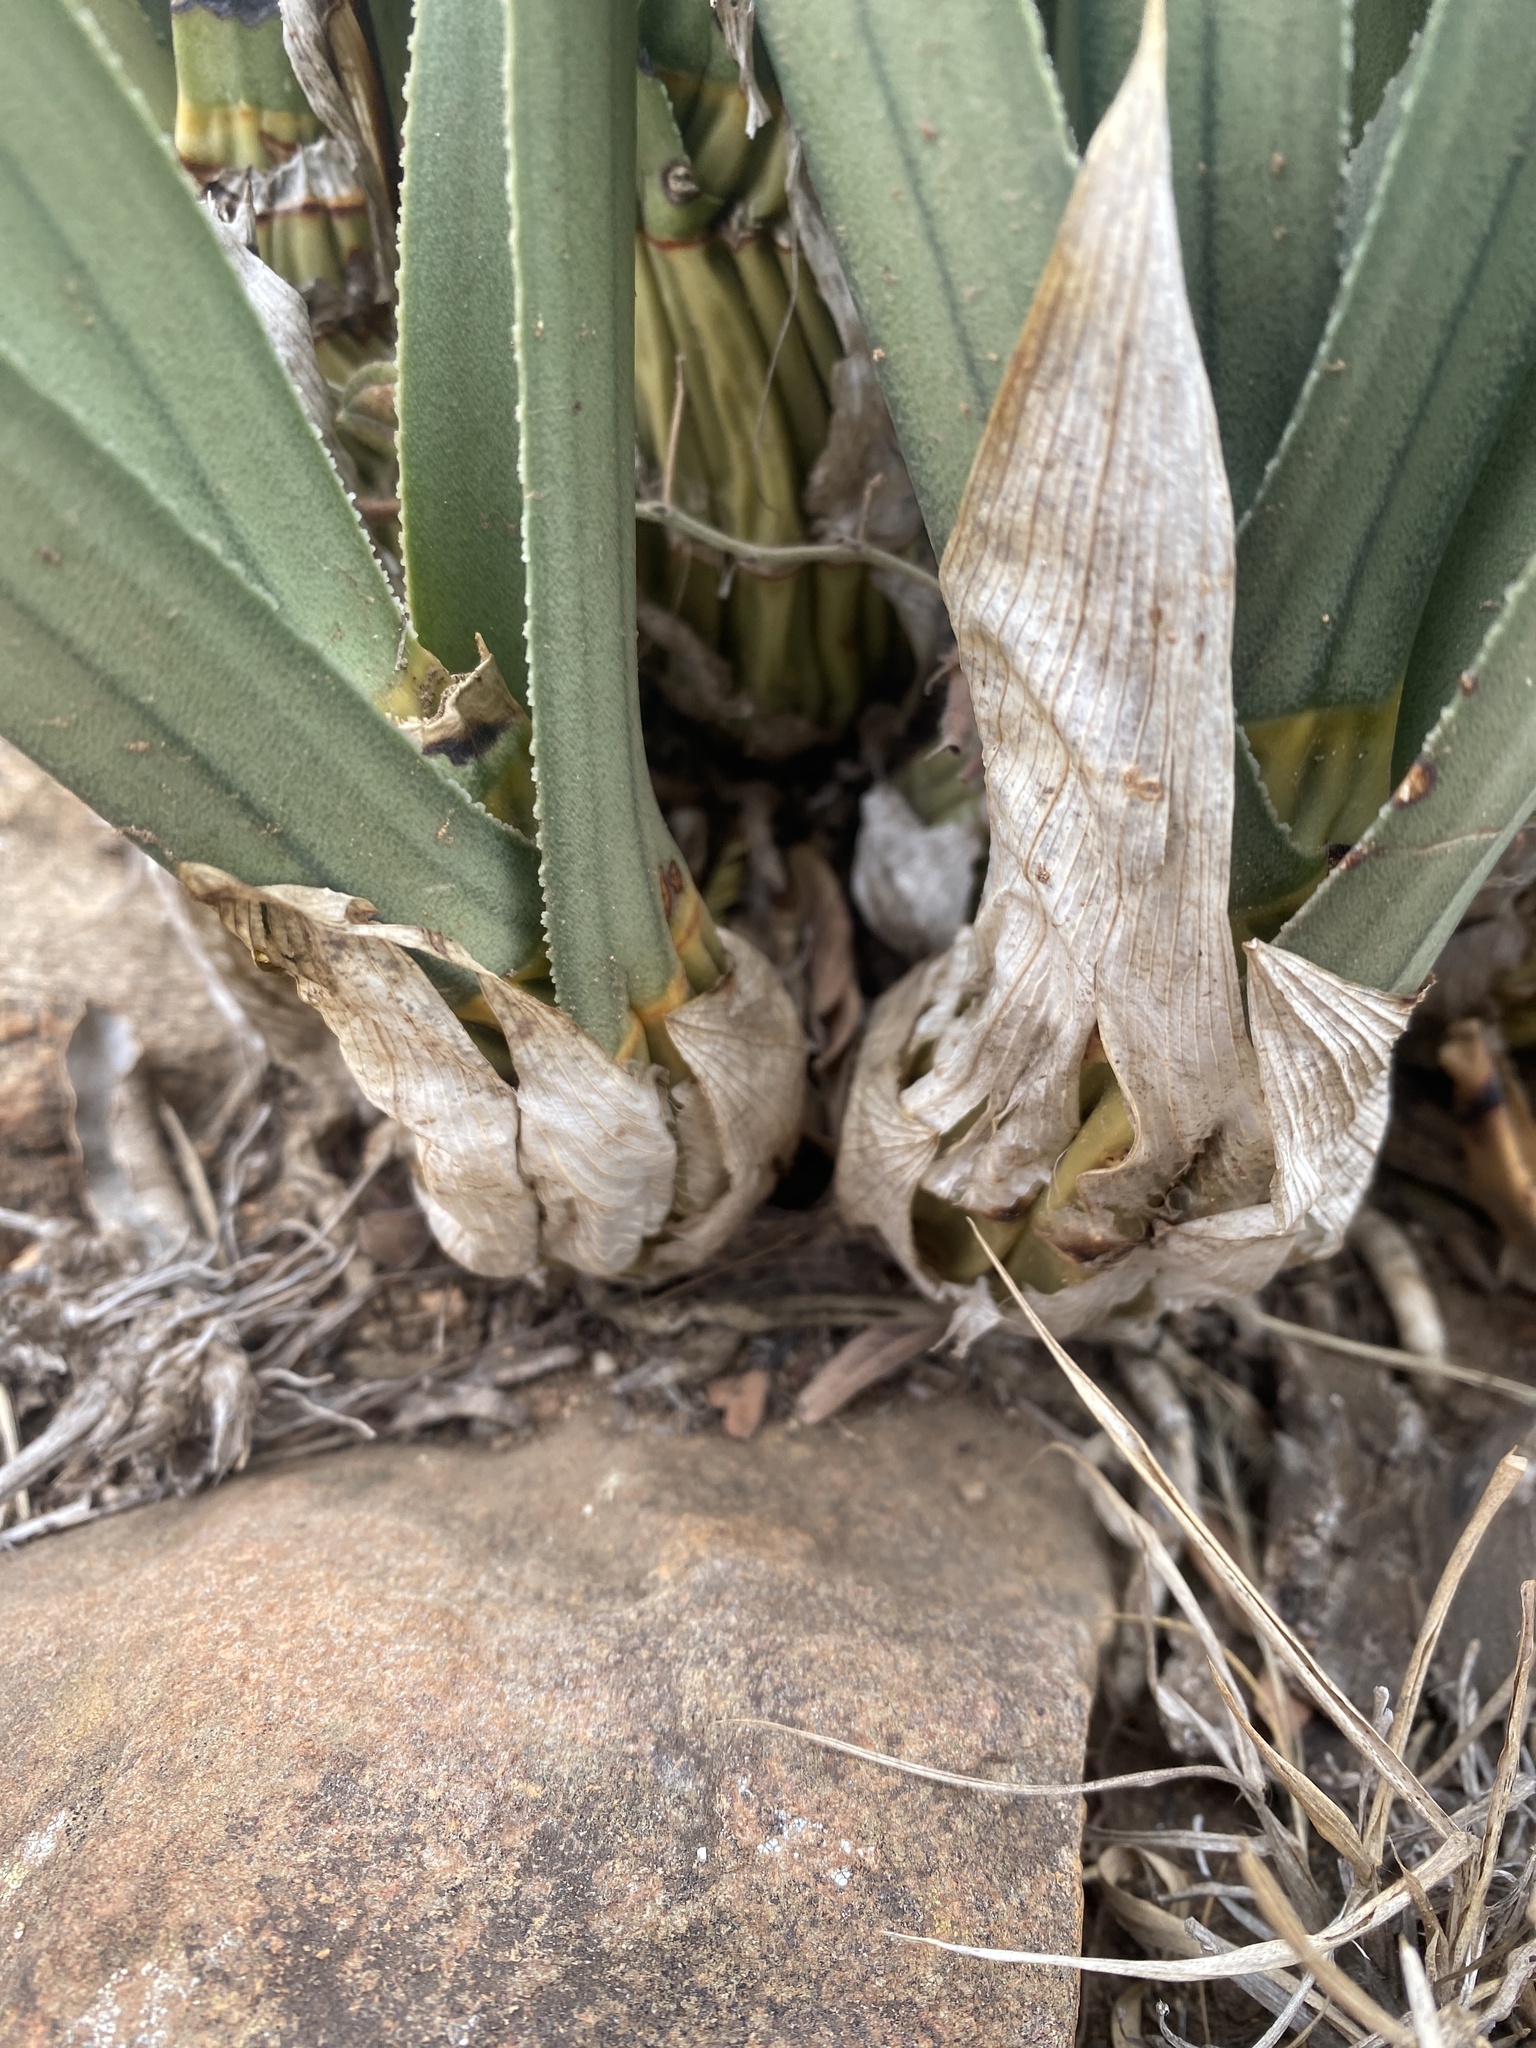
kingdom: Plantae
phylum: Tracheophyta
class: Liliopsida
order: Asparagales
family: Orchidaceae
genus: Eulophia
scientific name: Eulophia petersii
